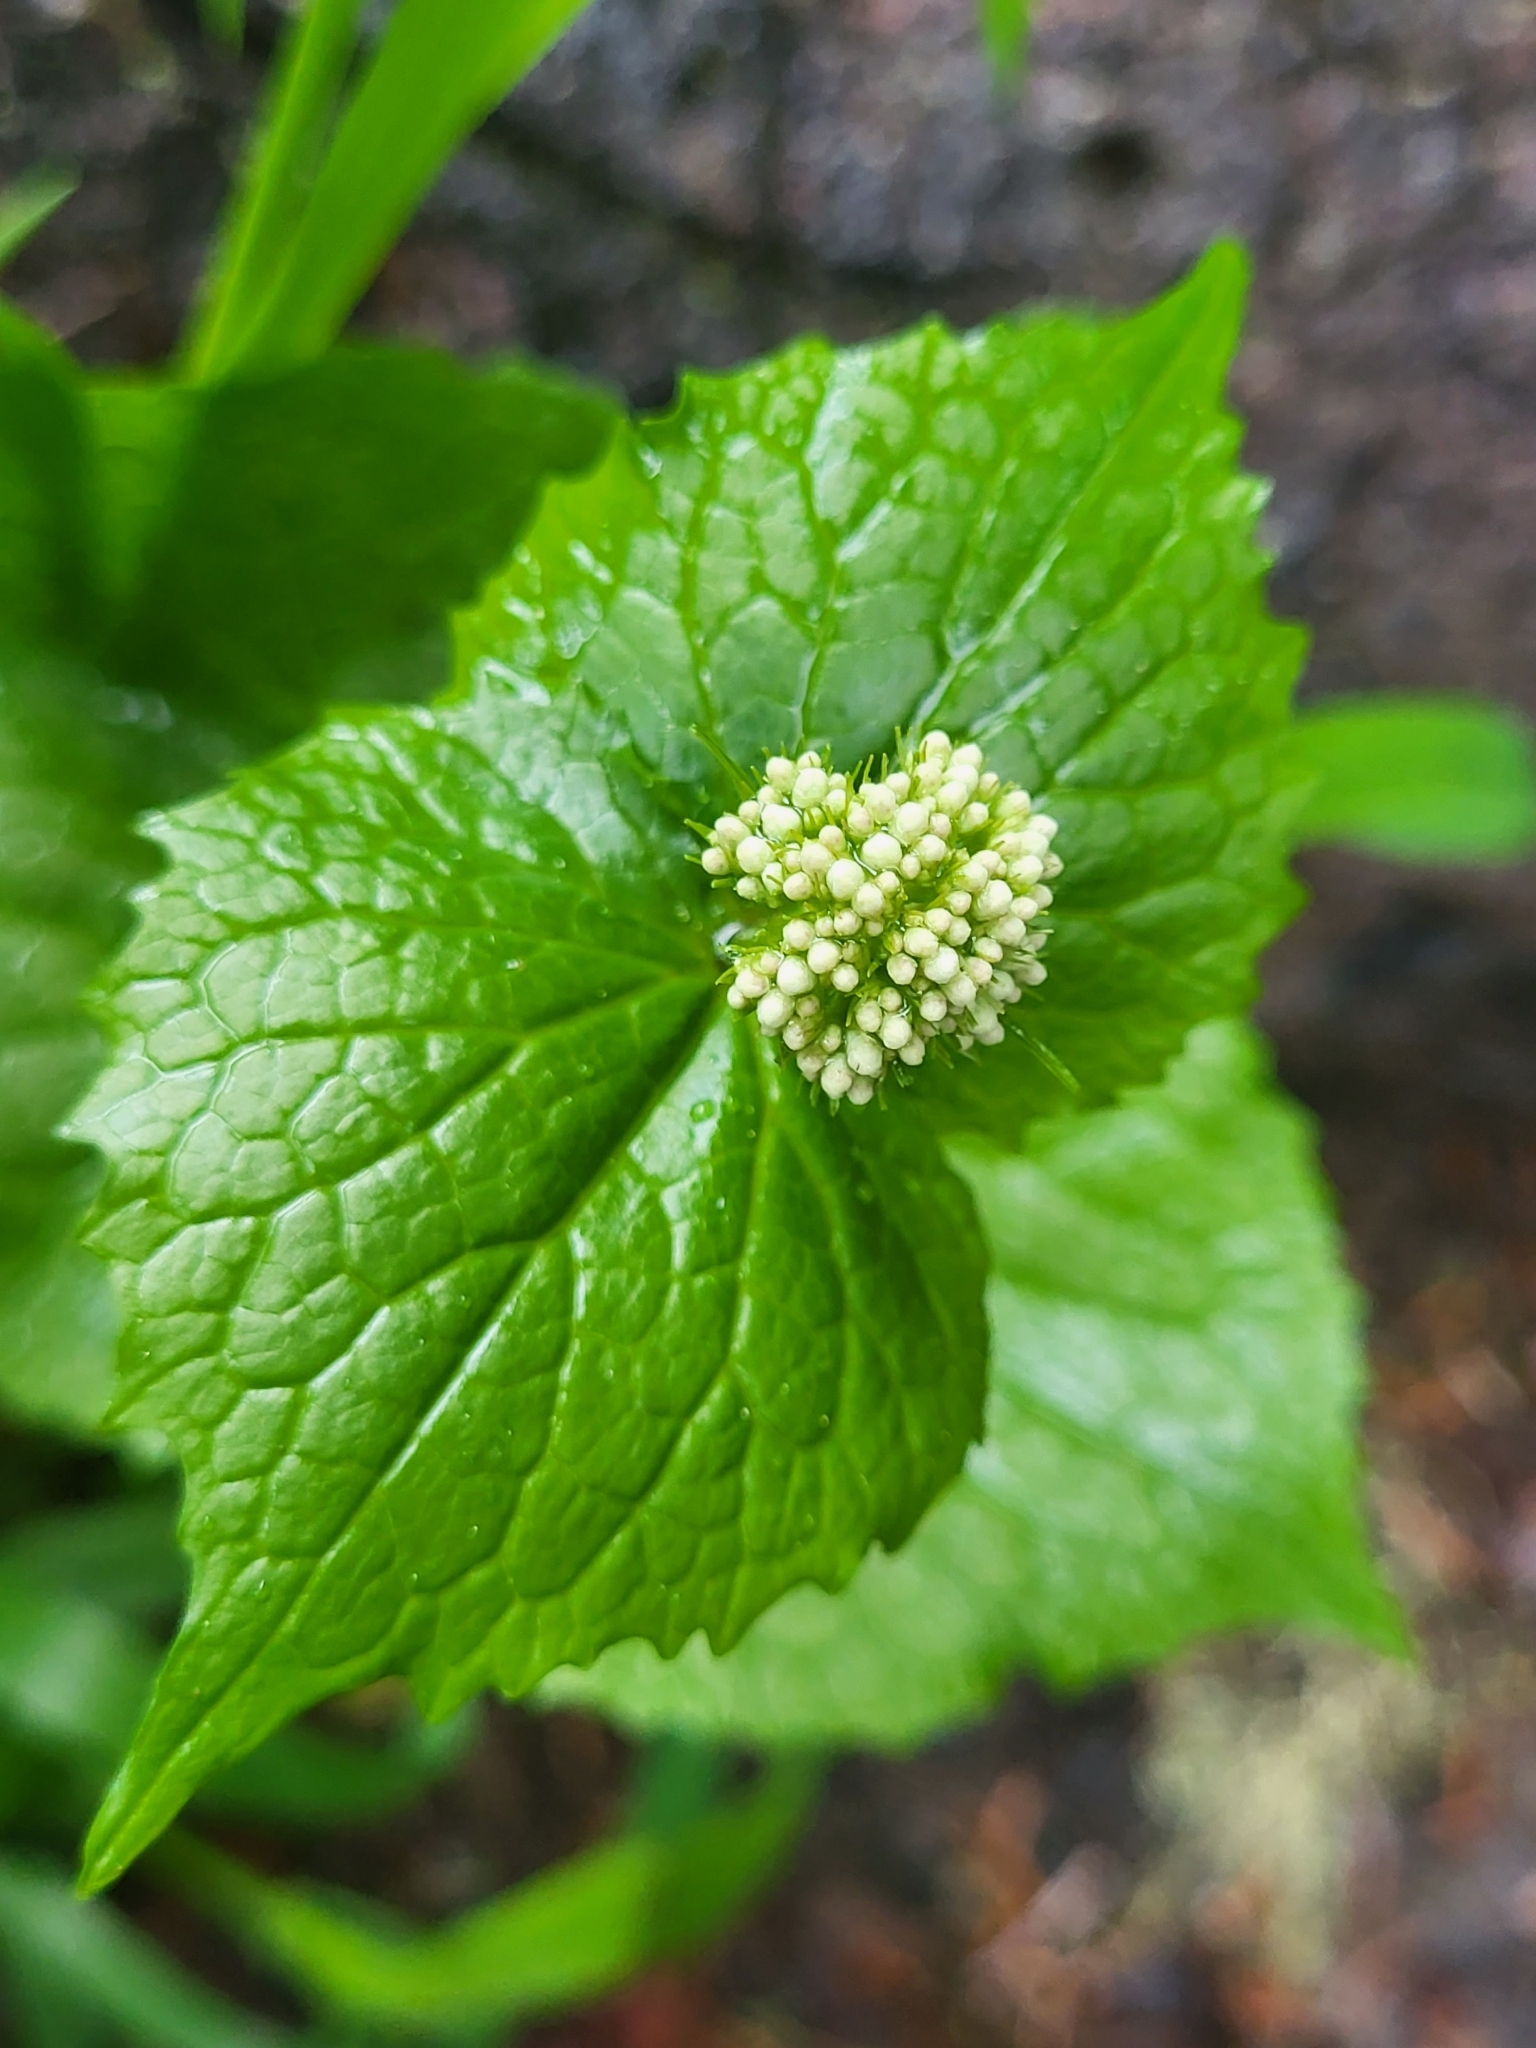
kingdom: Plantae
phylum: Tracheophyta
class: Magnoliopsida
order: Dipsacales
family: Caprifoliaceae
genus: Valeriana
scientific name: Valeriana alliariifolia
